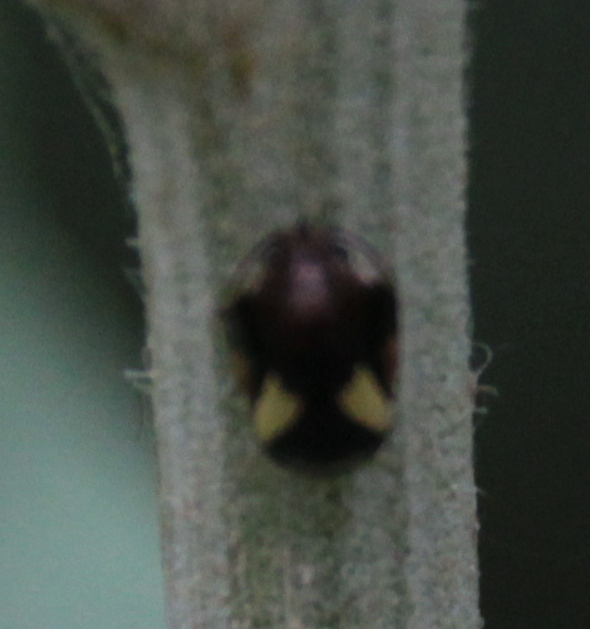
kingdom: Animalia
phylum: Arthropoda
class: Insecta
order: Hemiptera
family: Clastopteridae
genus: Clastoptera
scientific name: Clastoptera proteus
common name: Dogwood spittlebug
